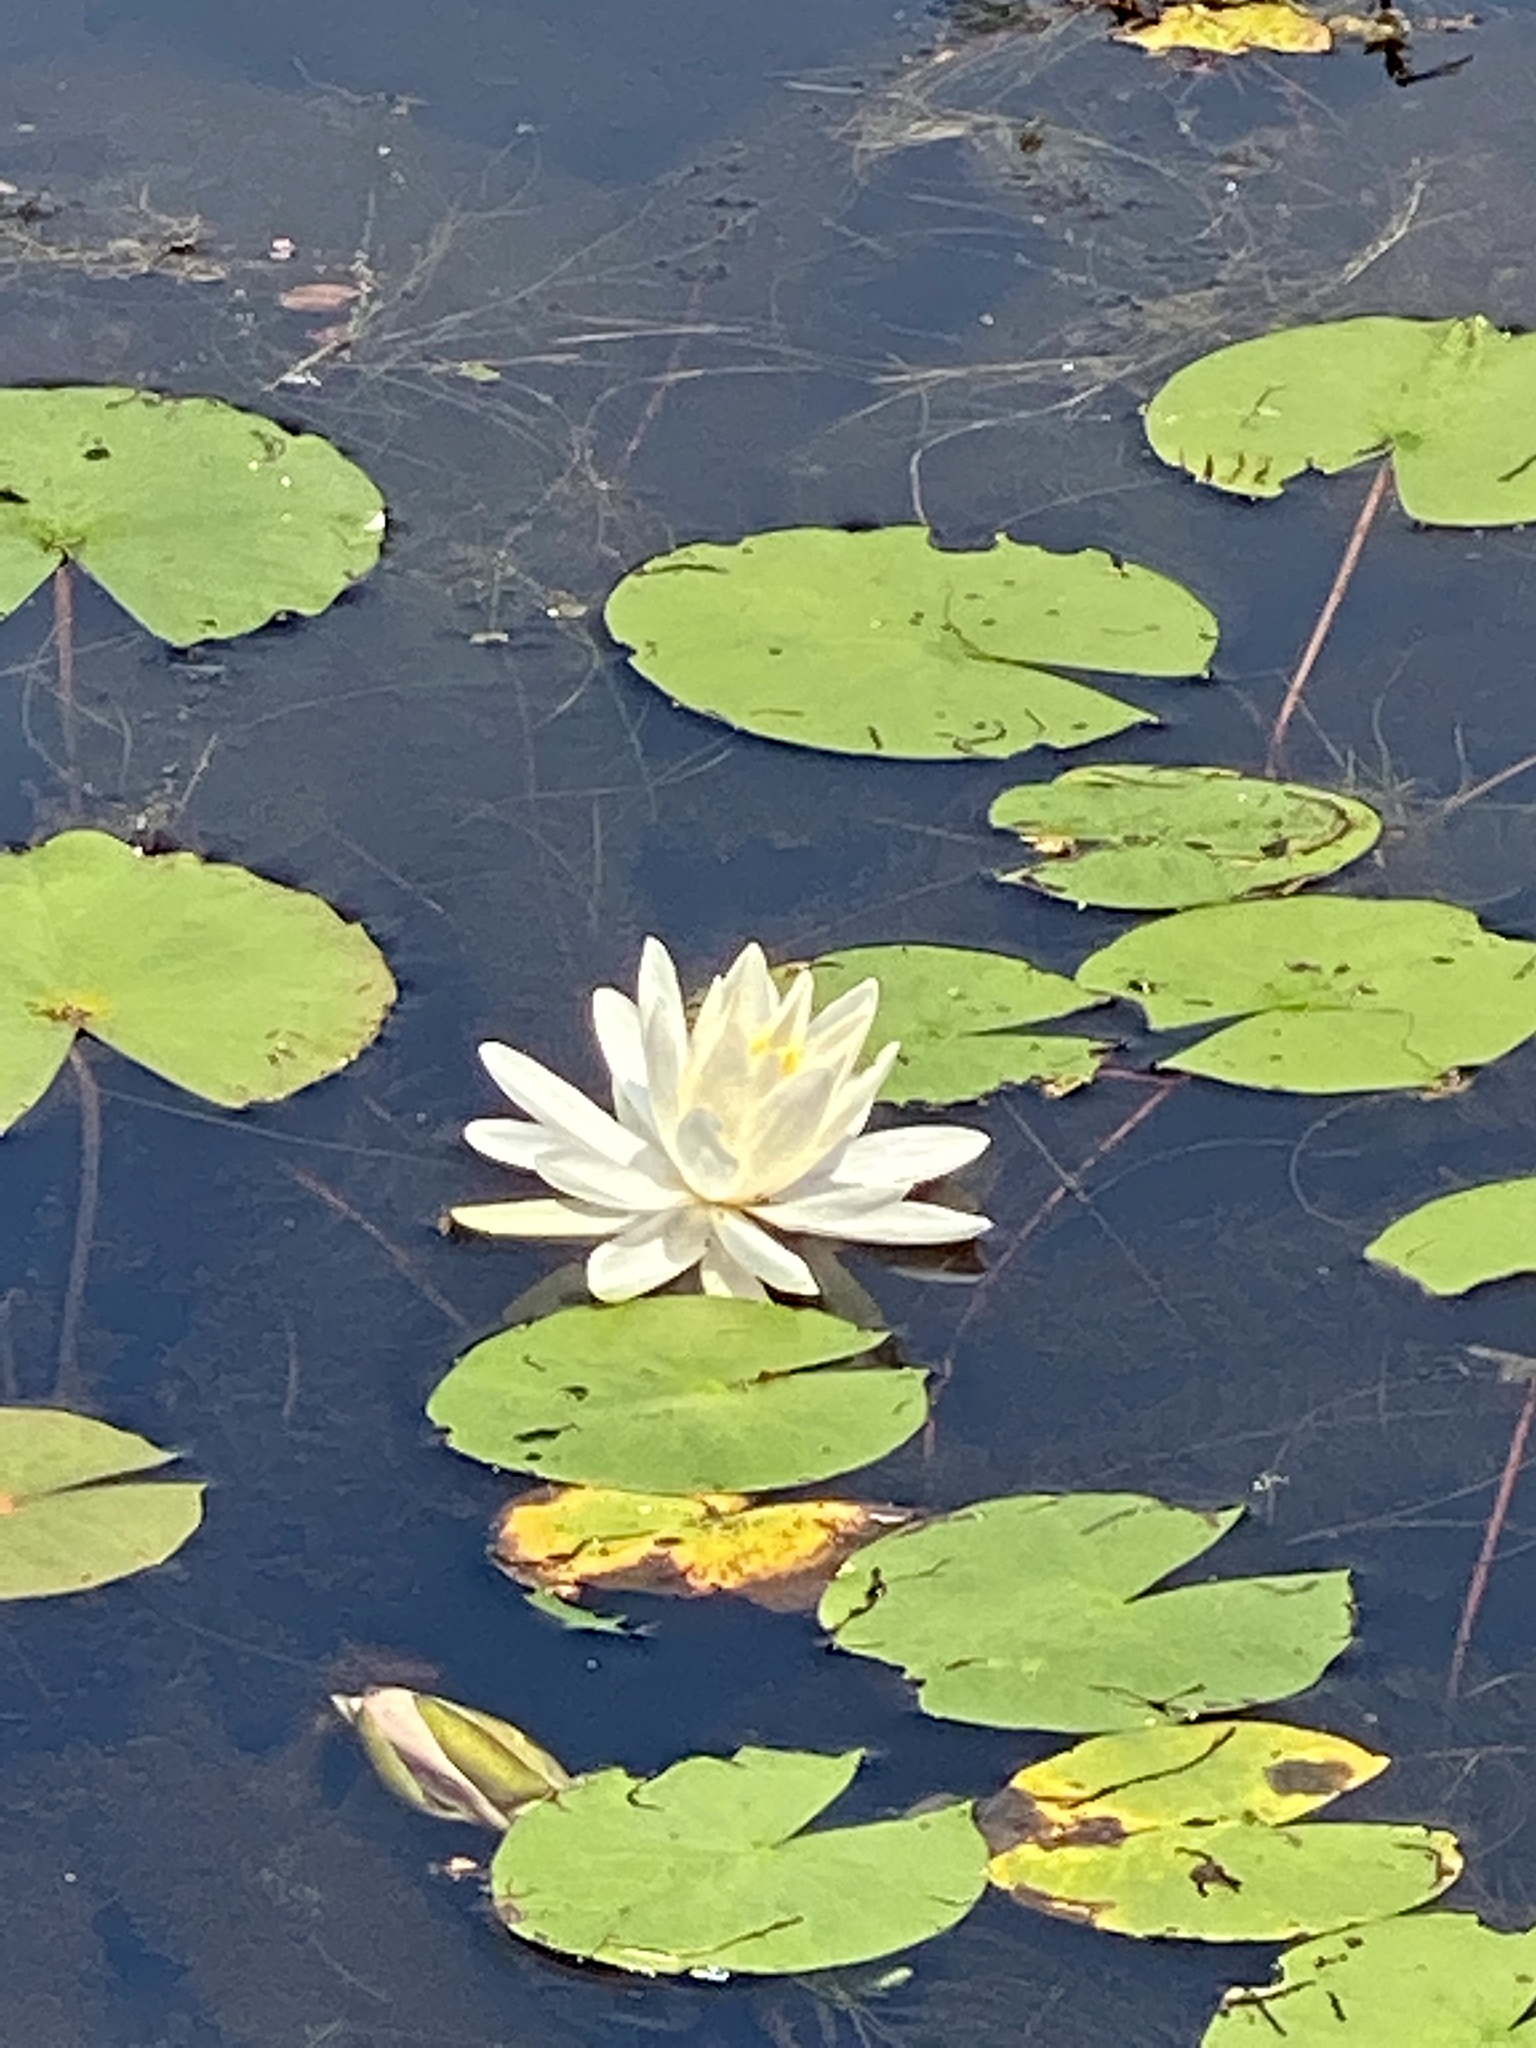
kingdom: Plantae
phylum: Tracheophyta
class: Magnoliopsida
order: Nymphaeales
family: Nymphaeaceae
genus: Nymphaea
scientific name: Nymphaea odorata
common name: Fragrant water-lily
